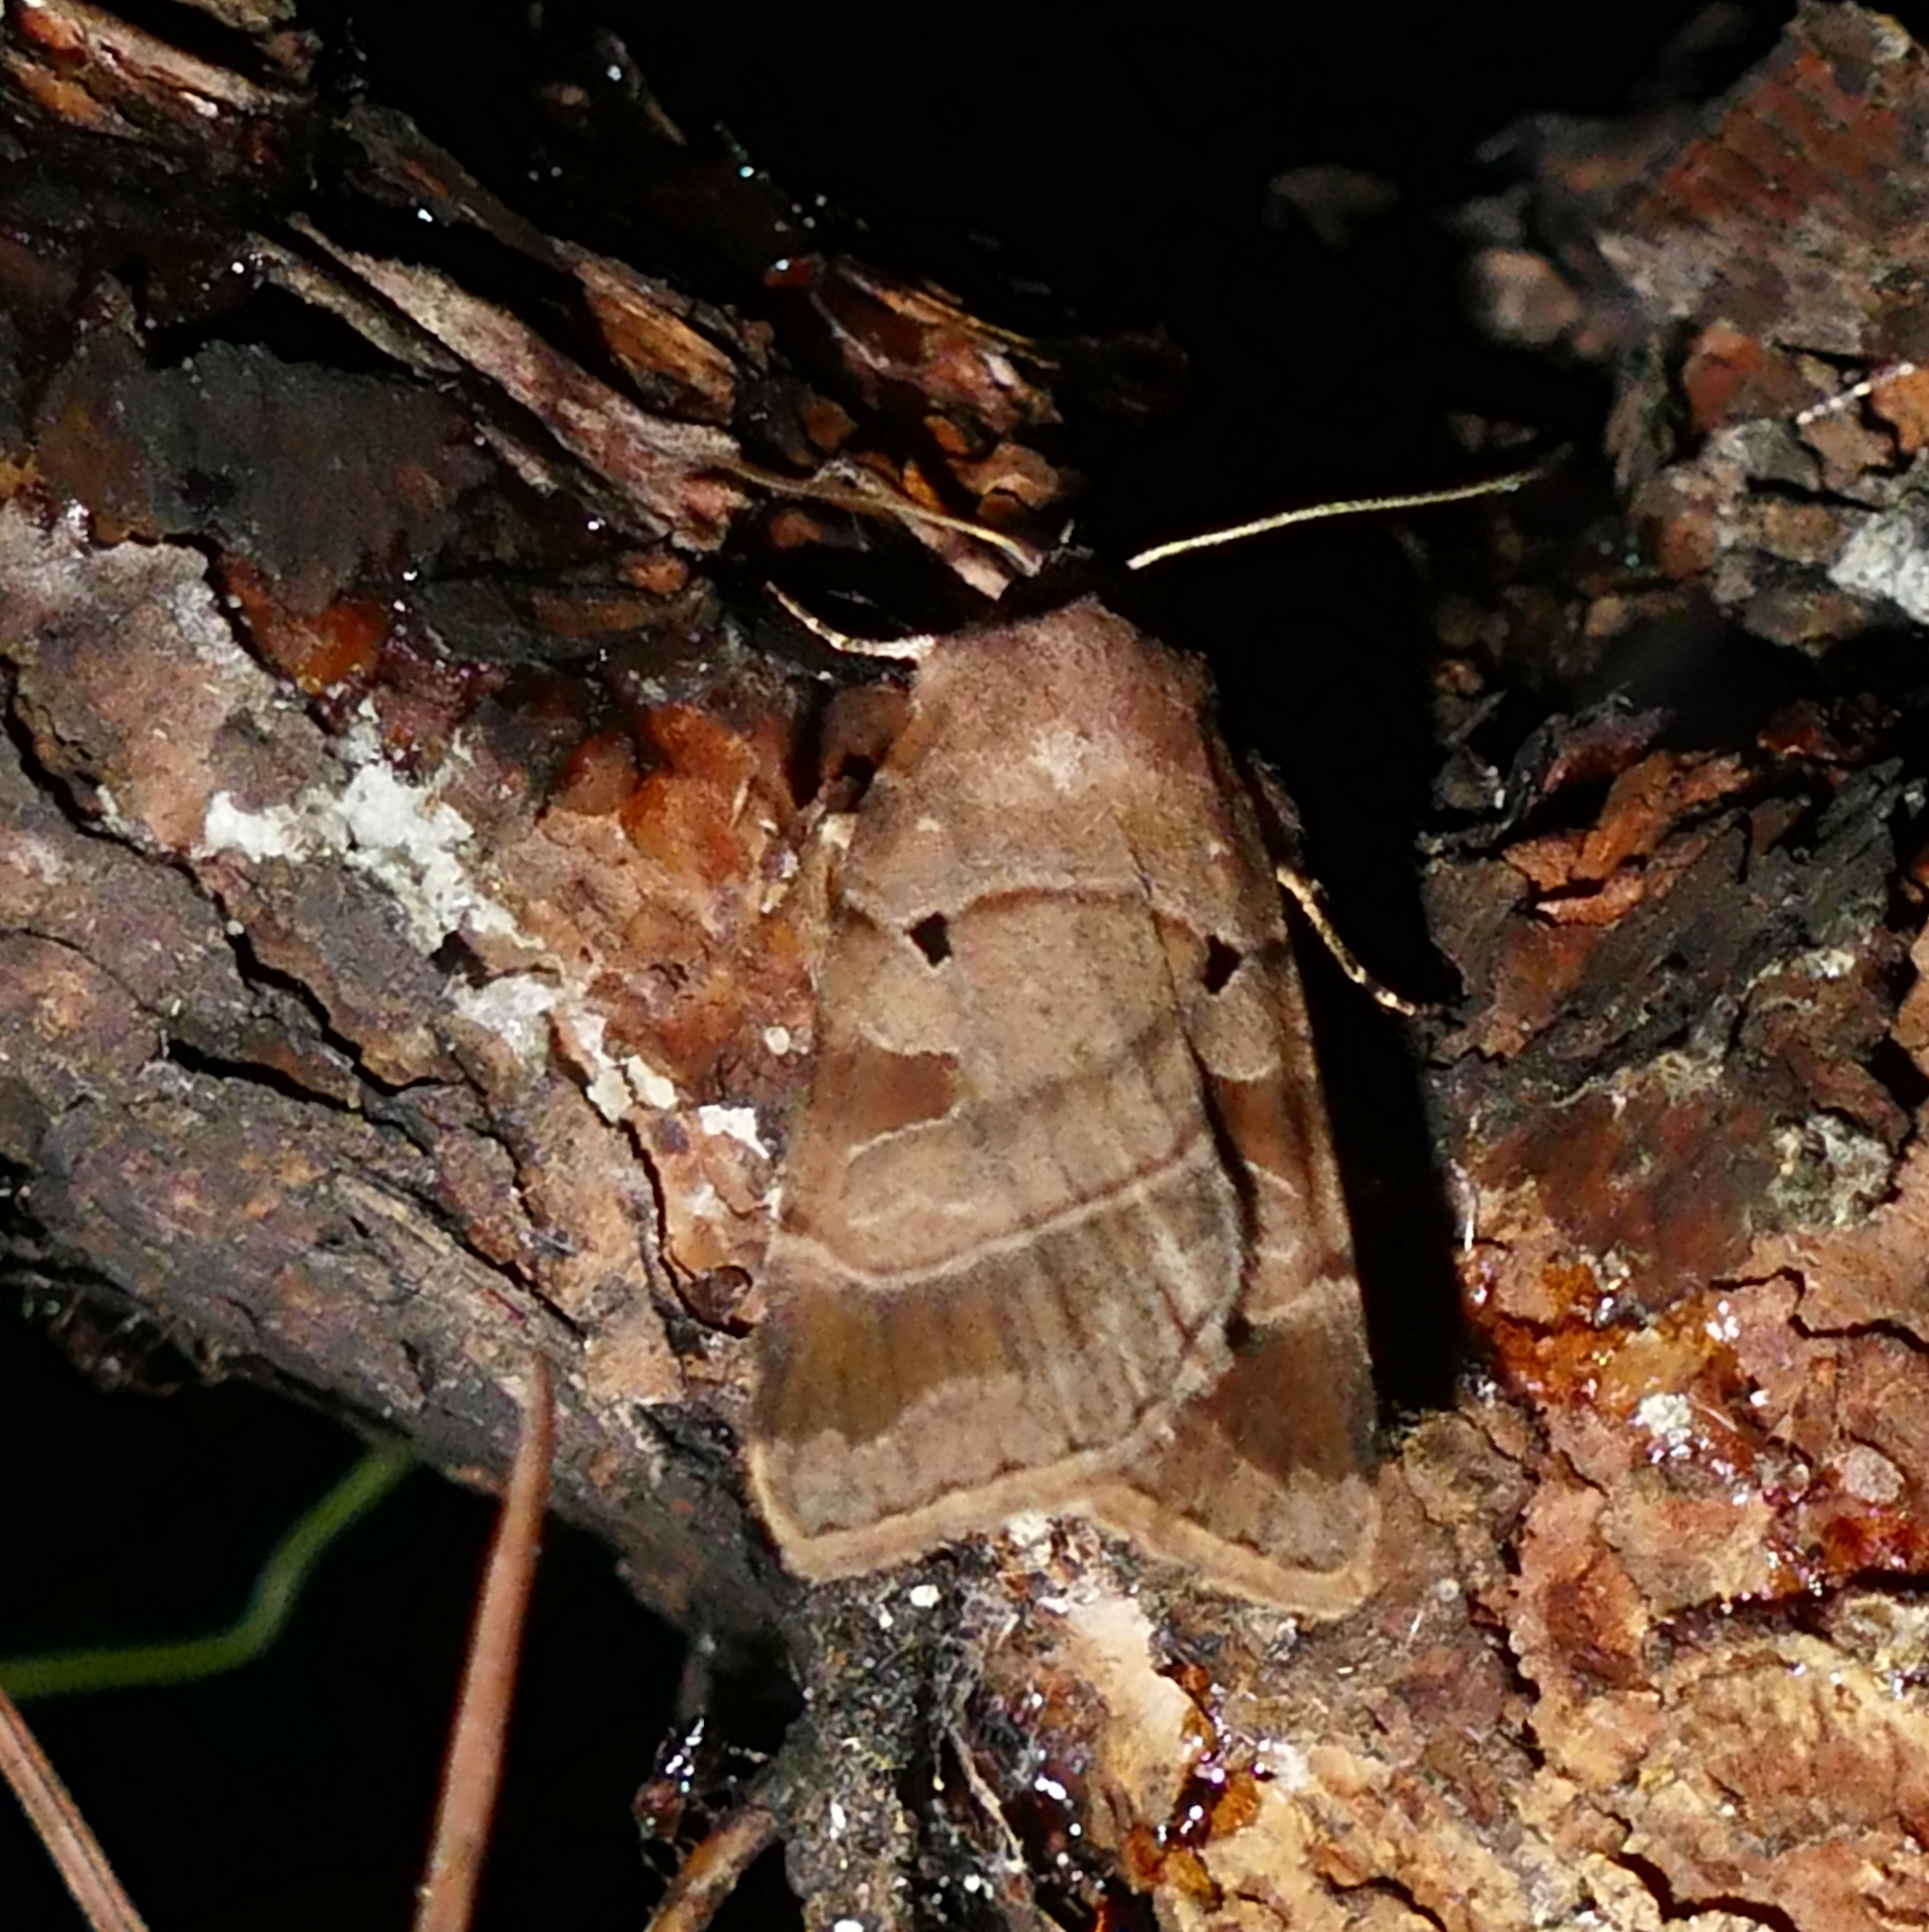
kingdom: Animalia
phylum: Arthropoda
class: Insecta
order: Lepidoptera
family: Noctuidae
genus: Agnorisma
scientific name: Agnorisma badinodis
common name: Pale-banded dart
